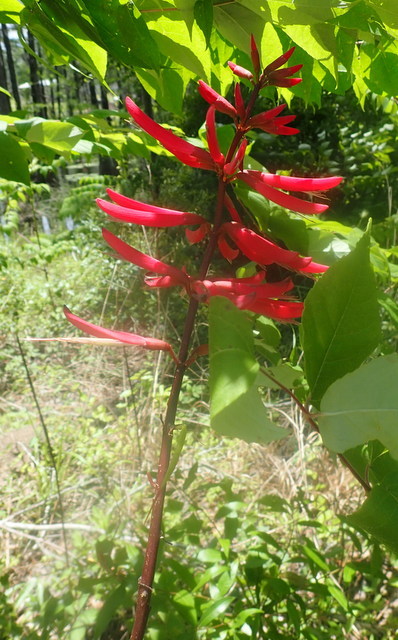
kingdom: Plantae
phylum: Tracheophyta
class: Magnoliopsida
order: Fabales
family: Fabaceae
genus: Erythrina
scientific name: Erythrina herbacea
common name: Coral-bean
